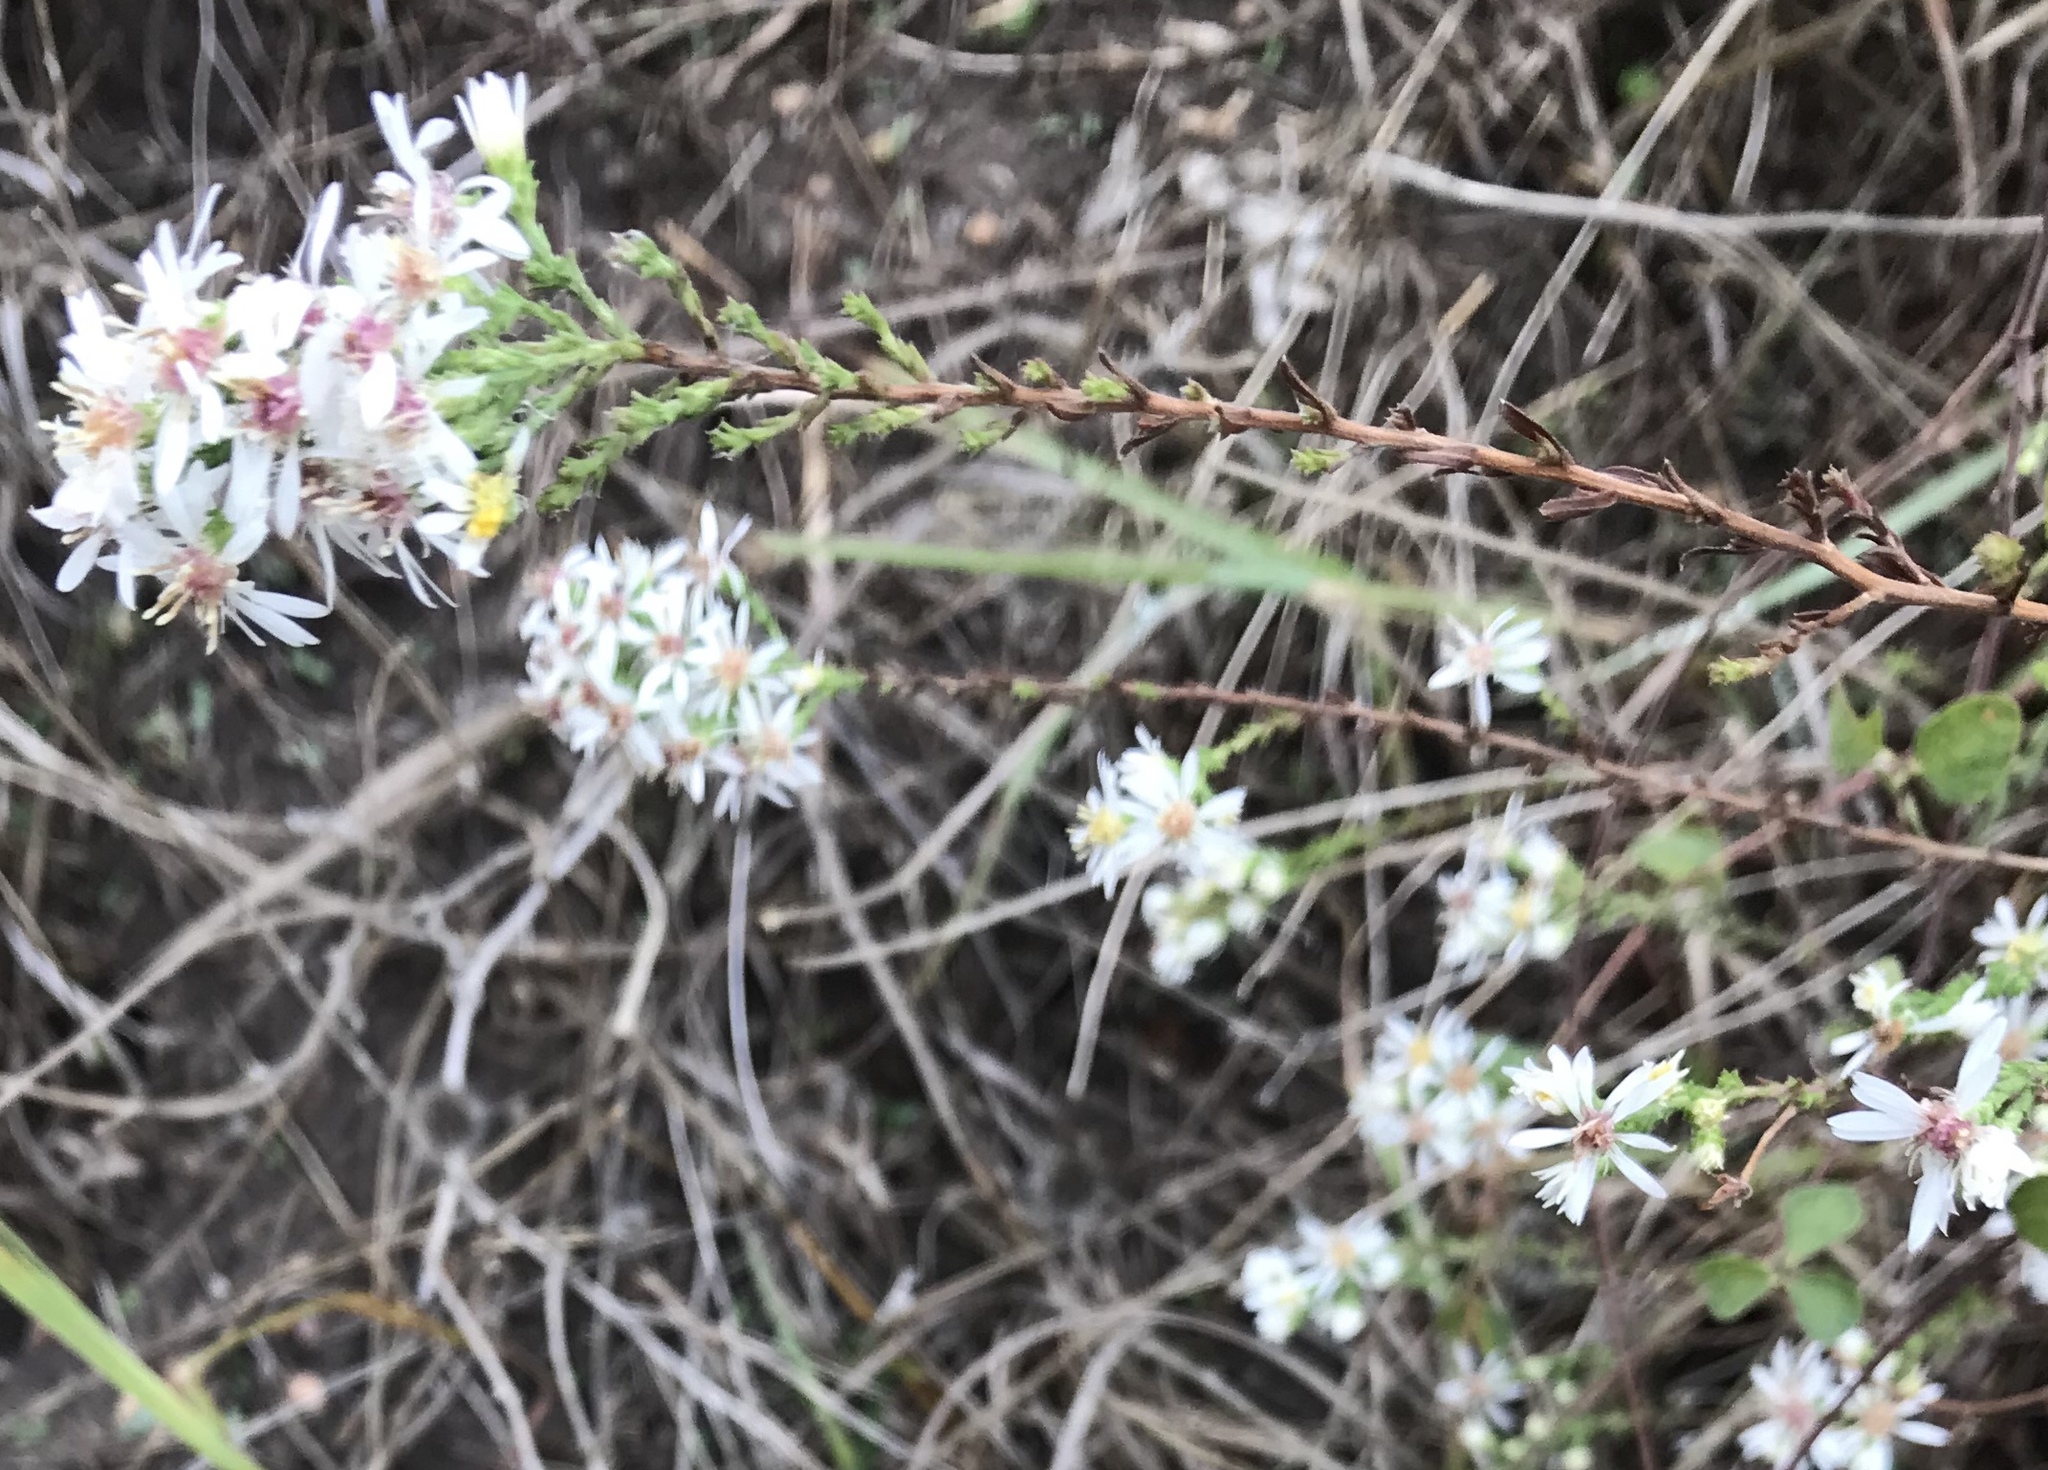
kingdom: Plantae
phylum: Tracheophyta
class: Magnoliopsida
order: Asterales
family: Asteraceae
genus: Symphyotrichum
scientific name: Symphyotrichum ericoides
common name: Heath aster
